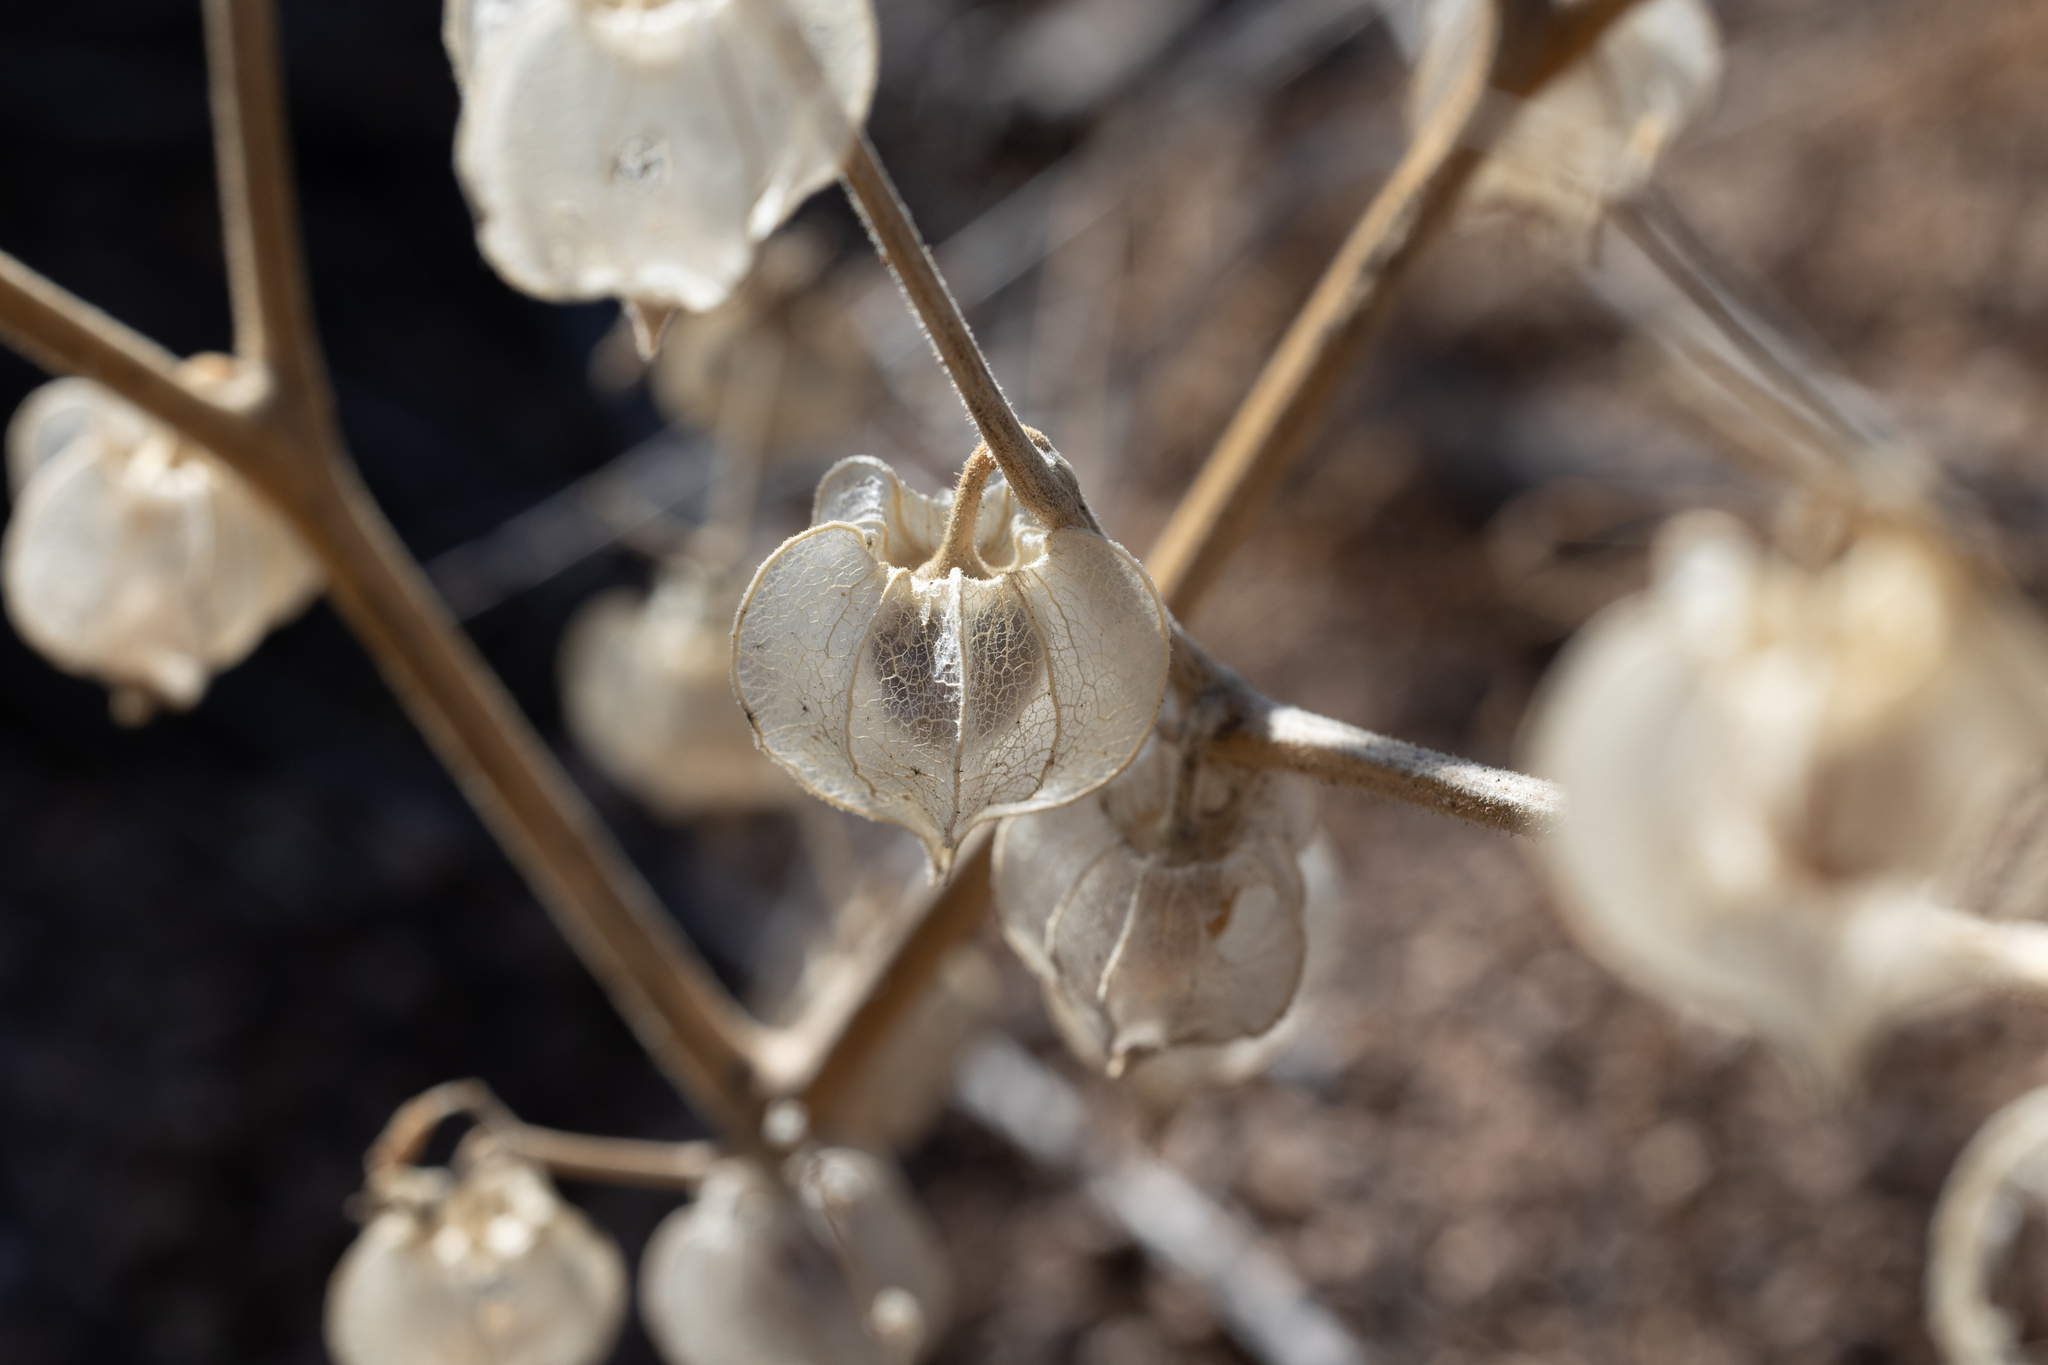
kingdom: Plantae
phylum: Tracheophyta
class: Magnoliopsida
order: Solanales
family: Solanaceae
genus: Physalis
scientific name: Physalis neomexicana
